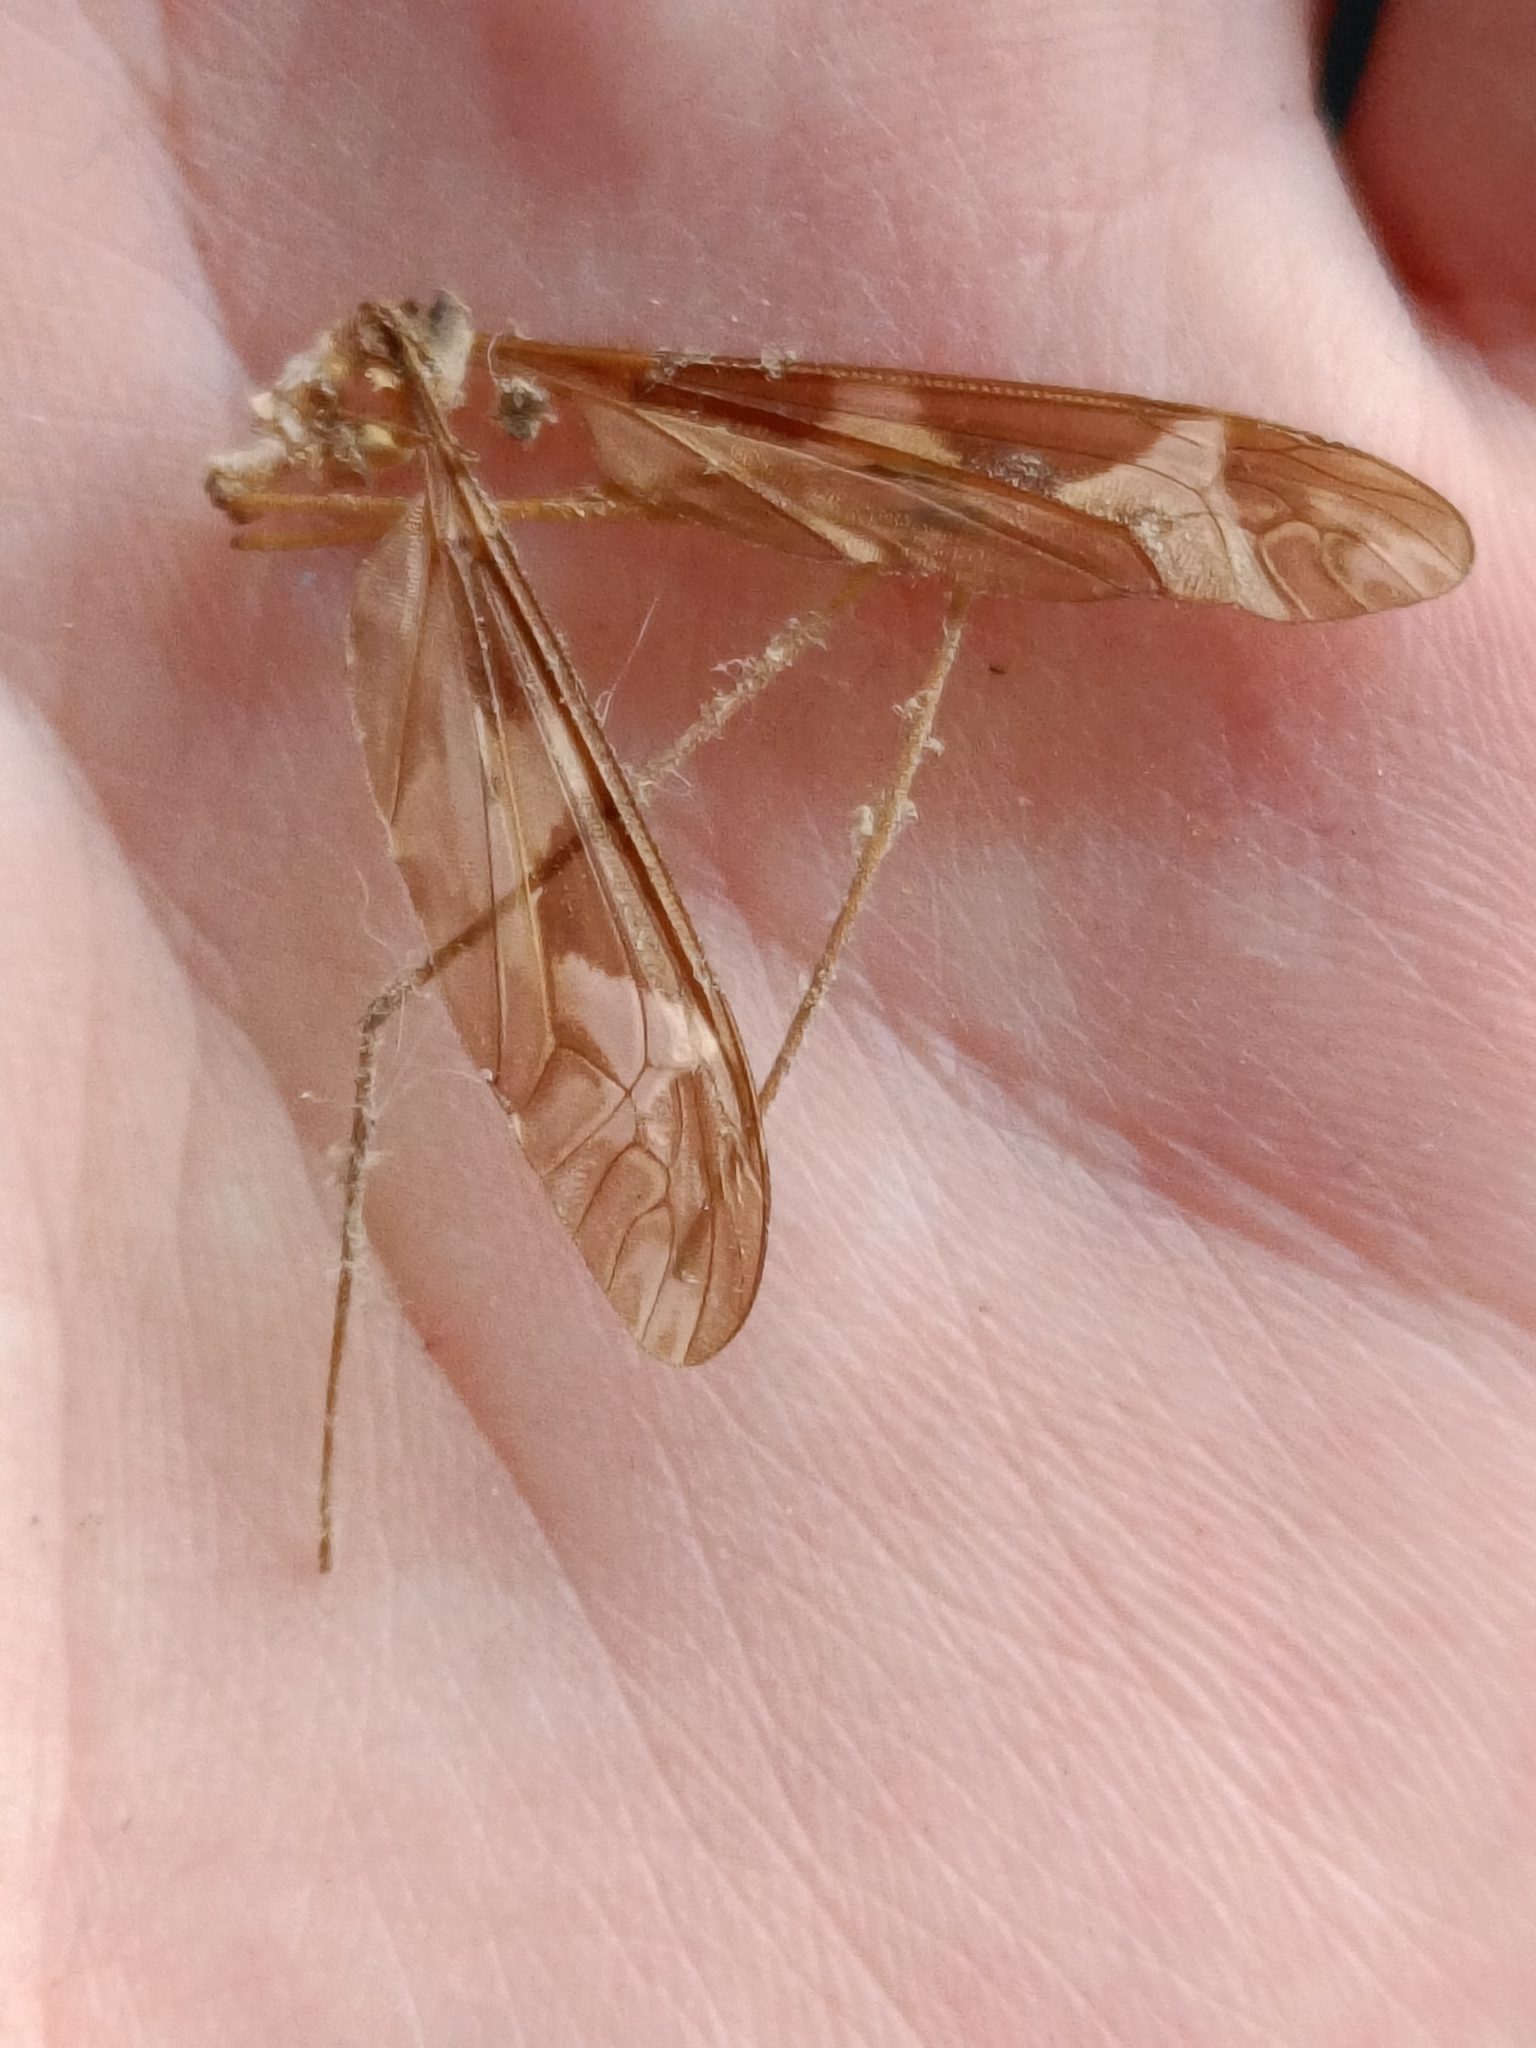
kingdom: Animalia
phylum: Arthropoda
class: Insecta
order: Diptera
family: Tipulidae
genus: Tipula
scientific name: Tipula maxima
